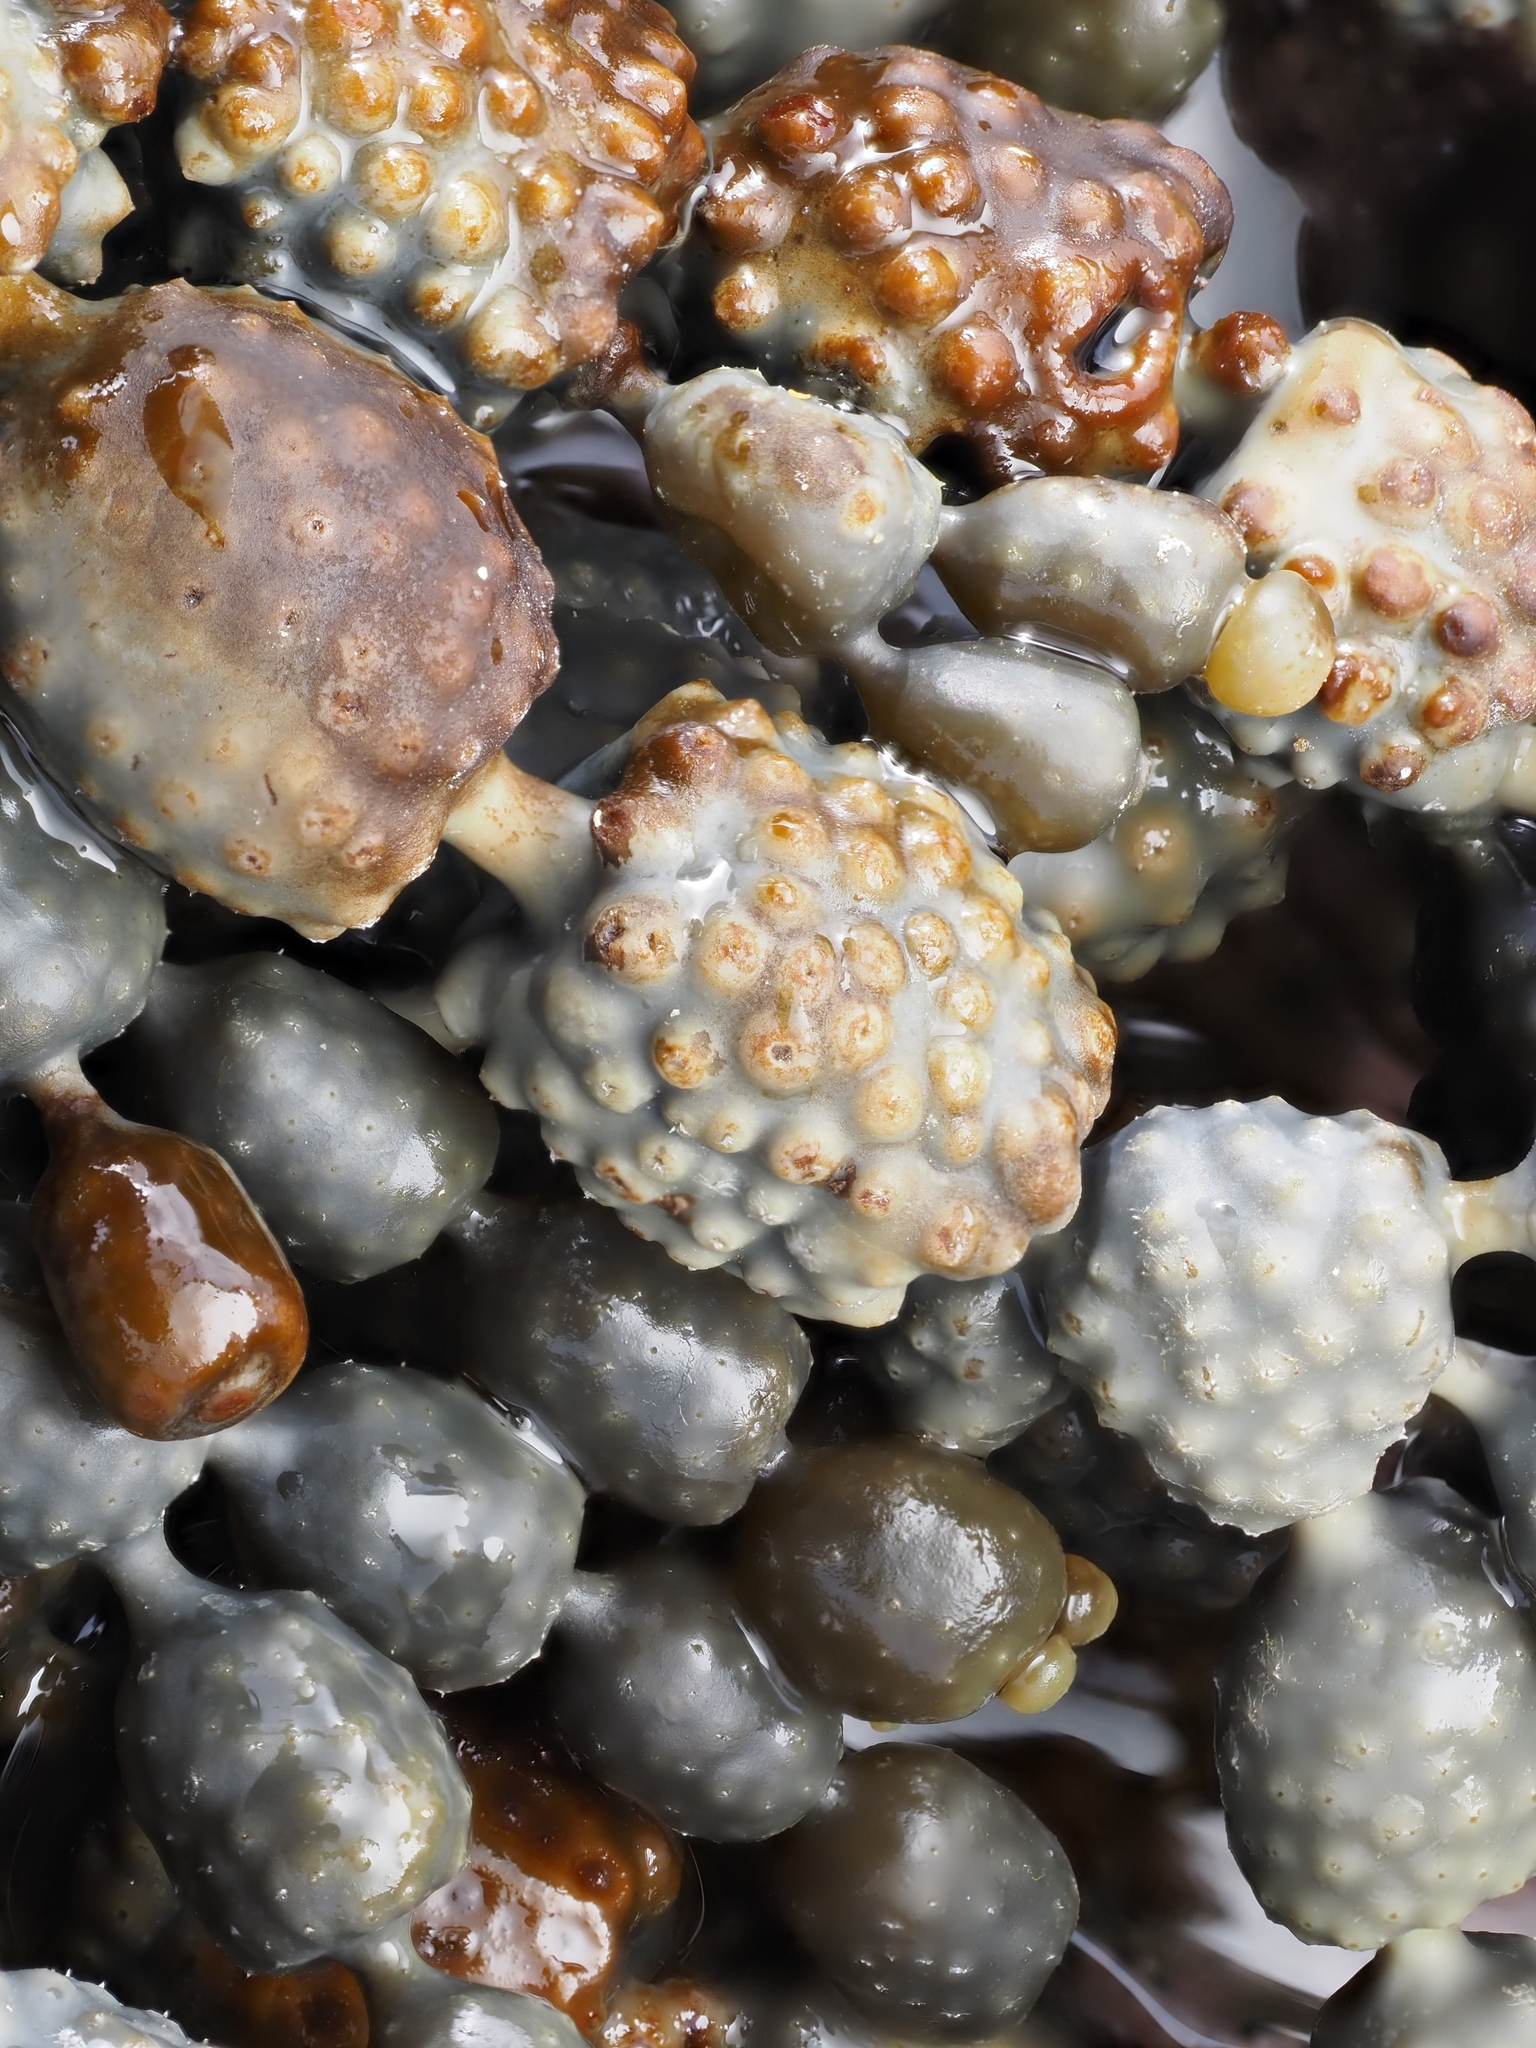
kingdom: Chromista
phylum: Ochrophyta
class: Phaeophyceae
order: Fucales
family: Hormosiraceae
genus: Hormosira
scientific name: Hormosira banksii
